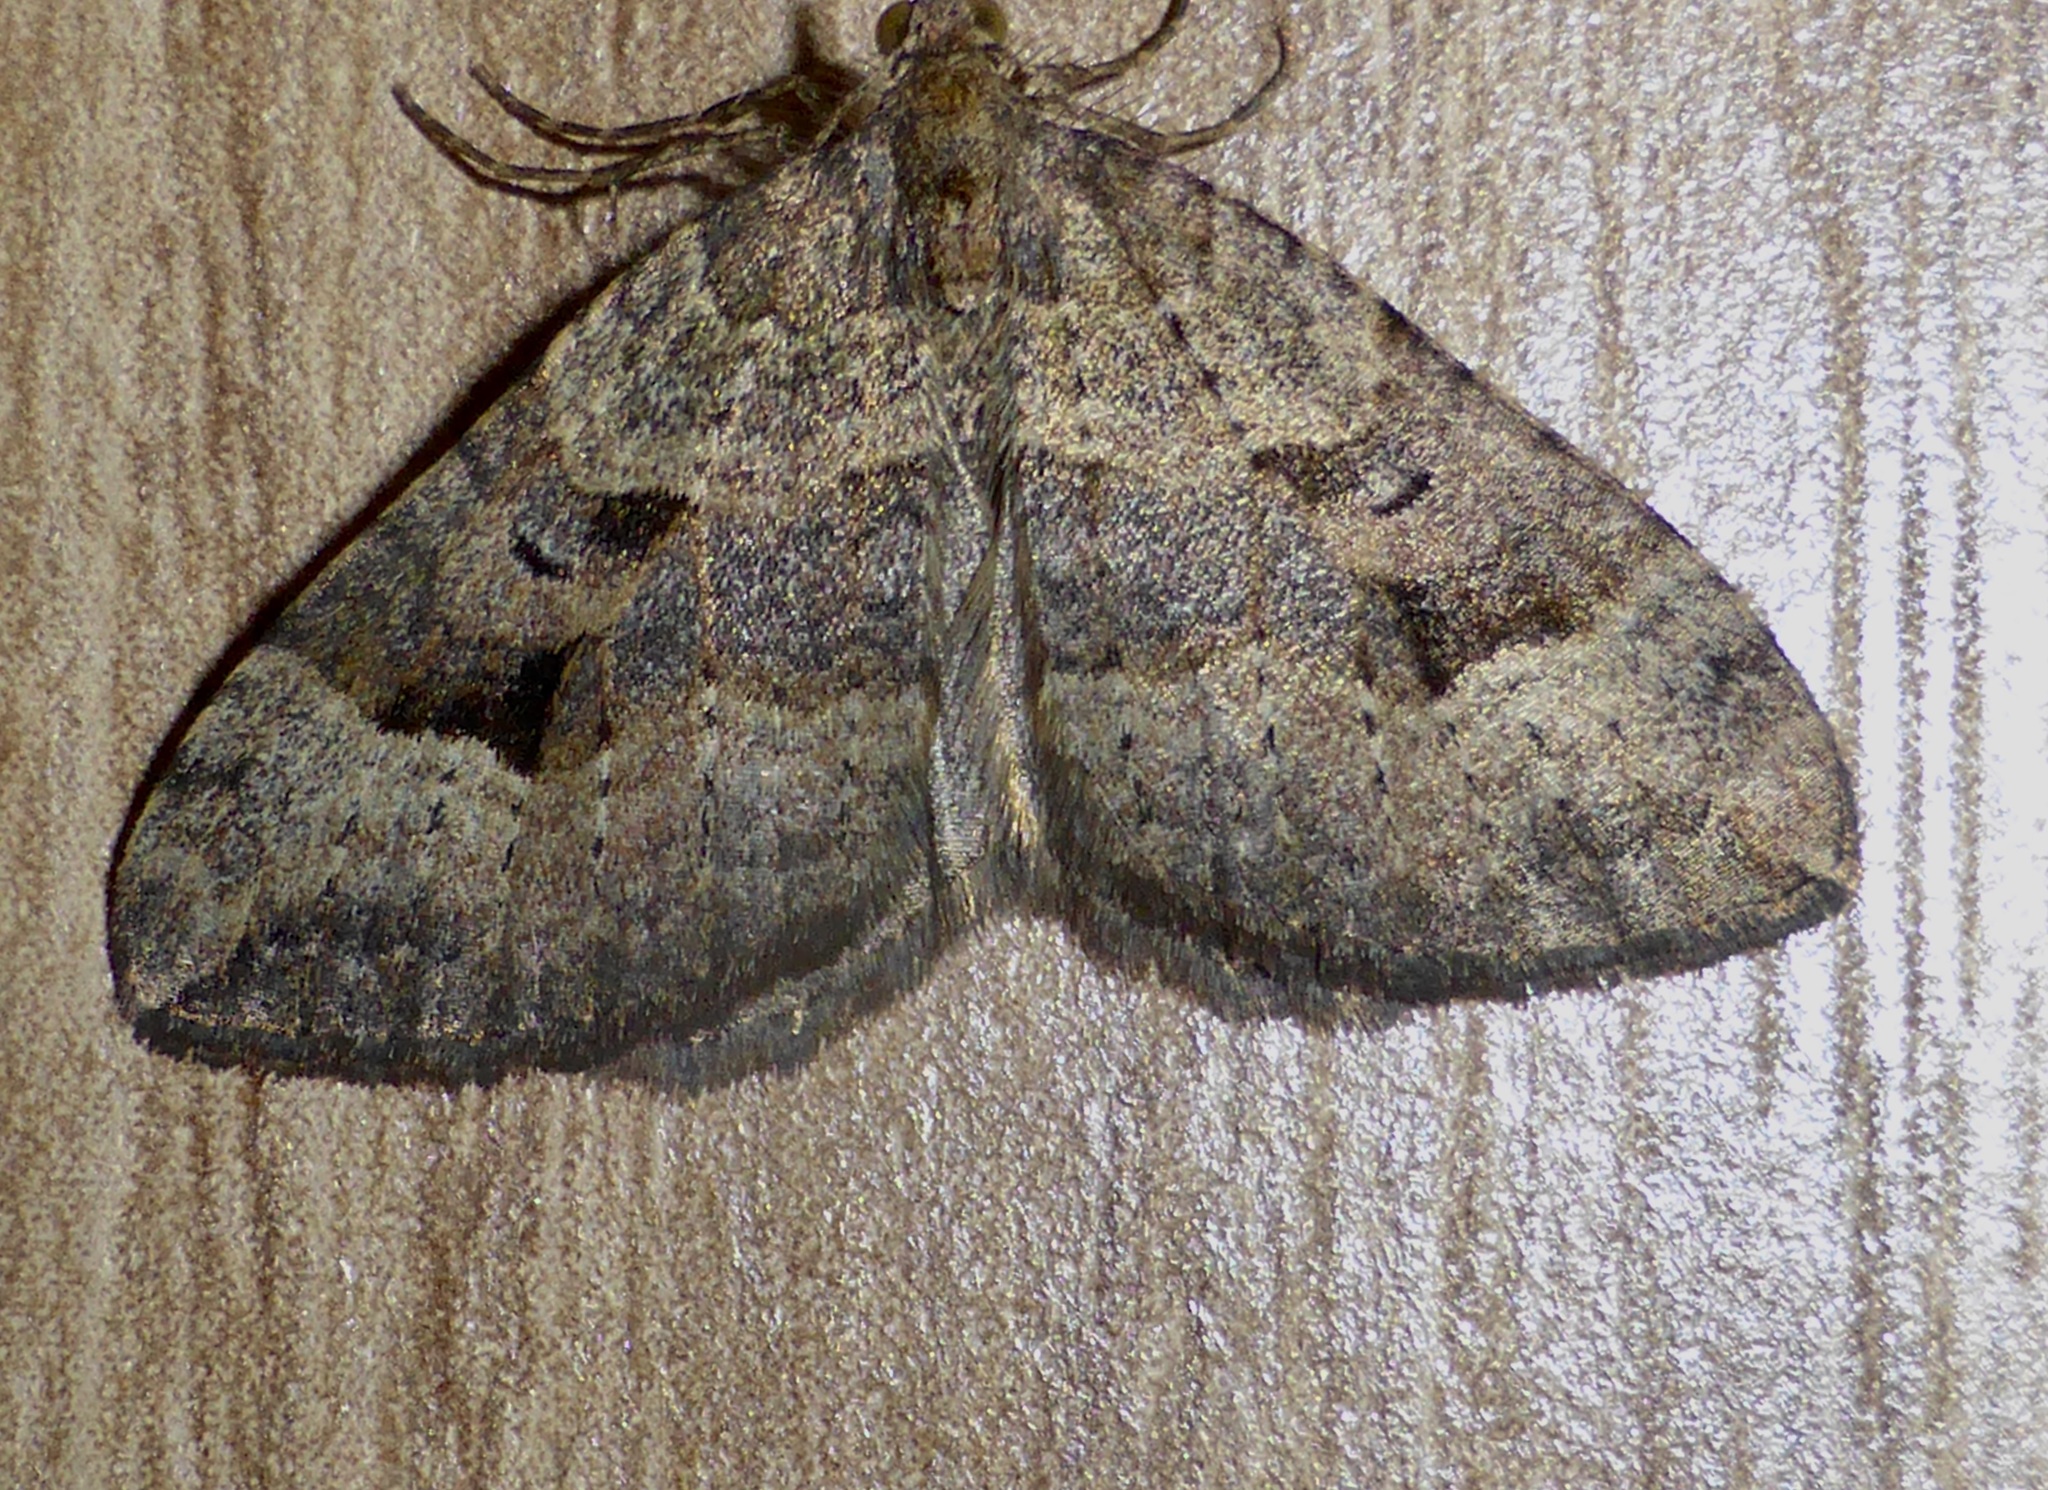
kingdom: Animalia
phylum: Arthropoda
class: Insecta
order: Lepidoptera
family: Geometridae
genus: Epyaxa
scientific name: Epyaxa rosearia
